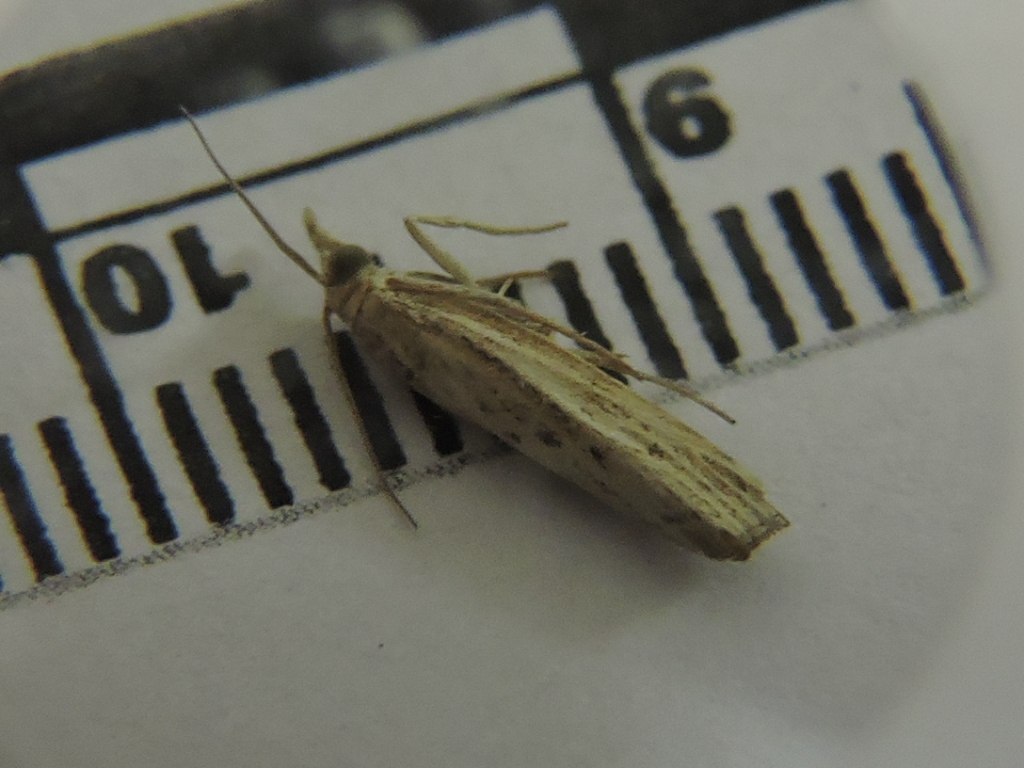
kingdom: Animalia
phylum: Arthropoda
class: Insecta
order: Lepidoptera
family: Crambidae
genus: Fissicrambus
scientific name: Fissicrambus profanellus
